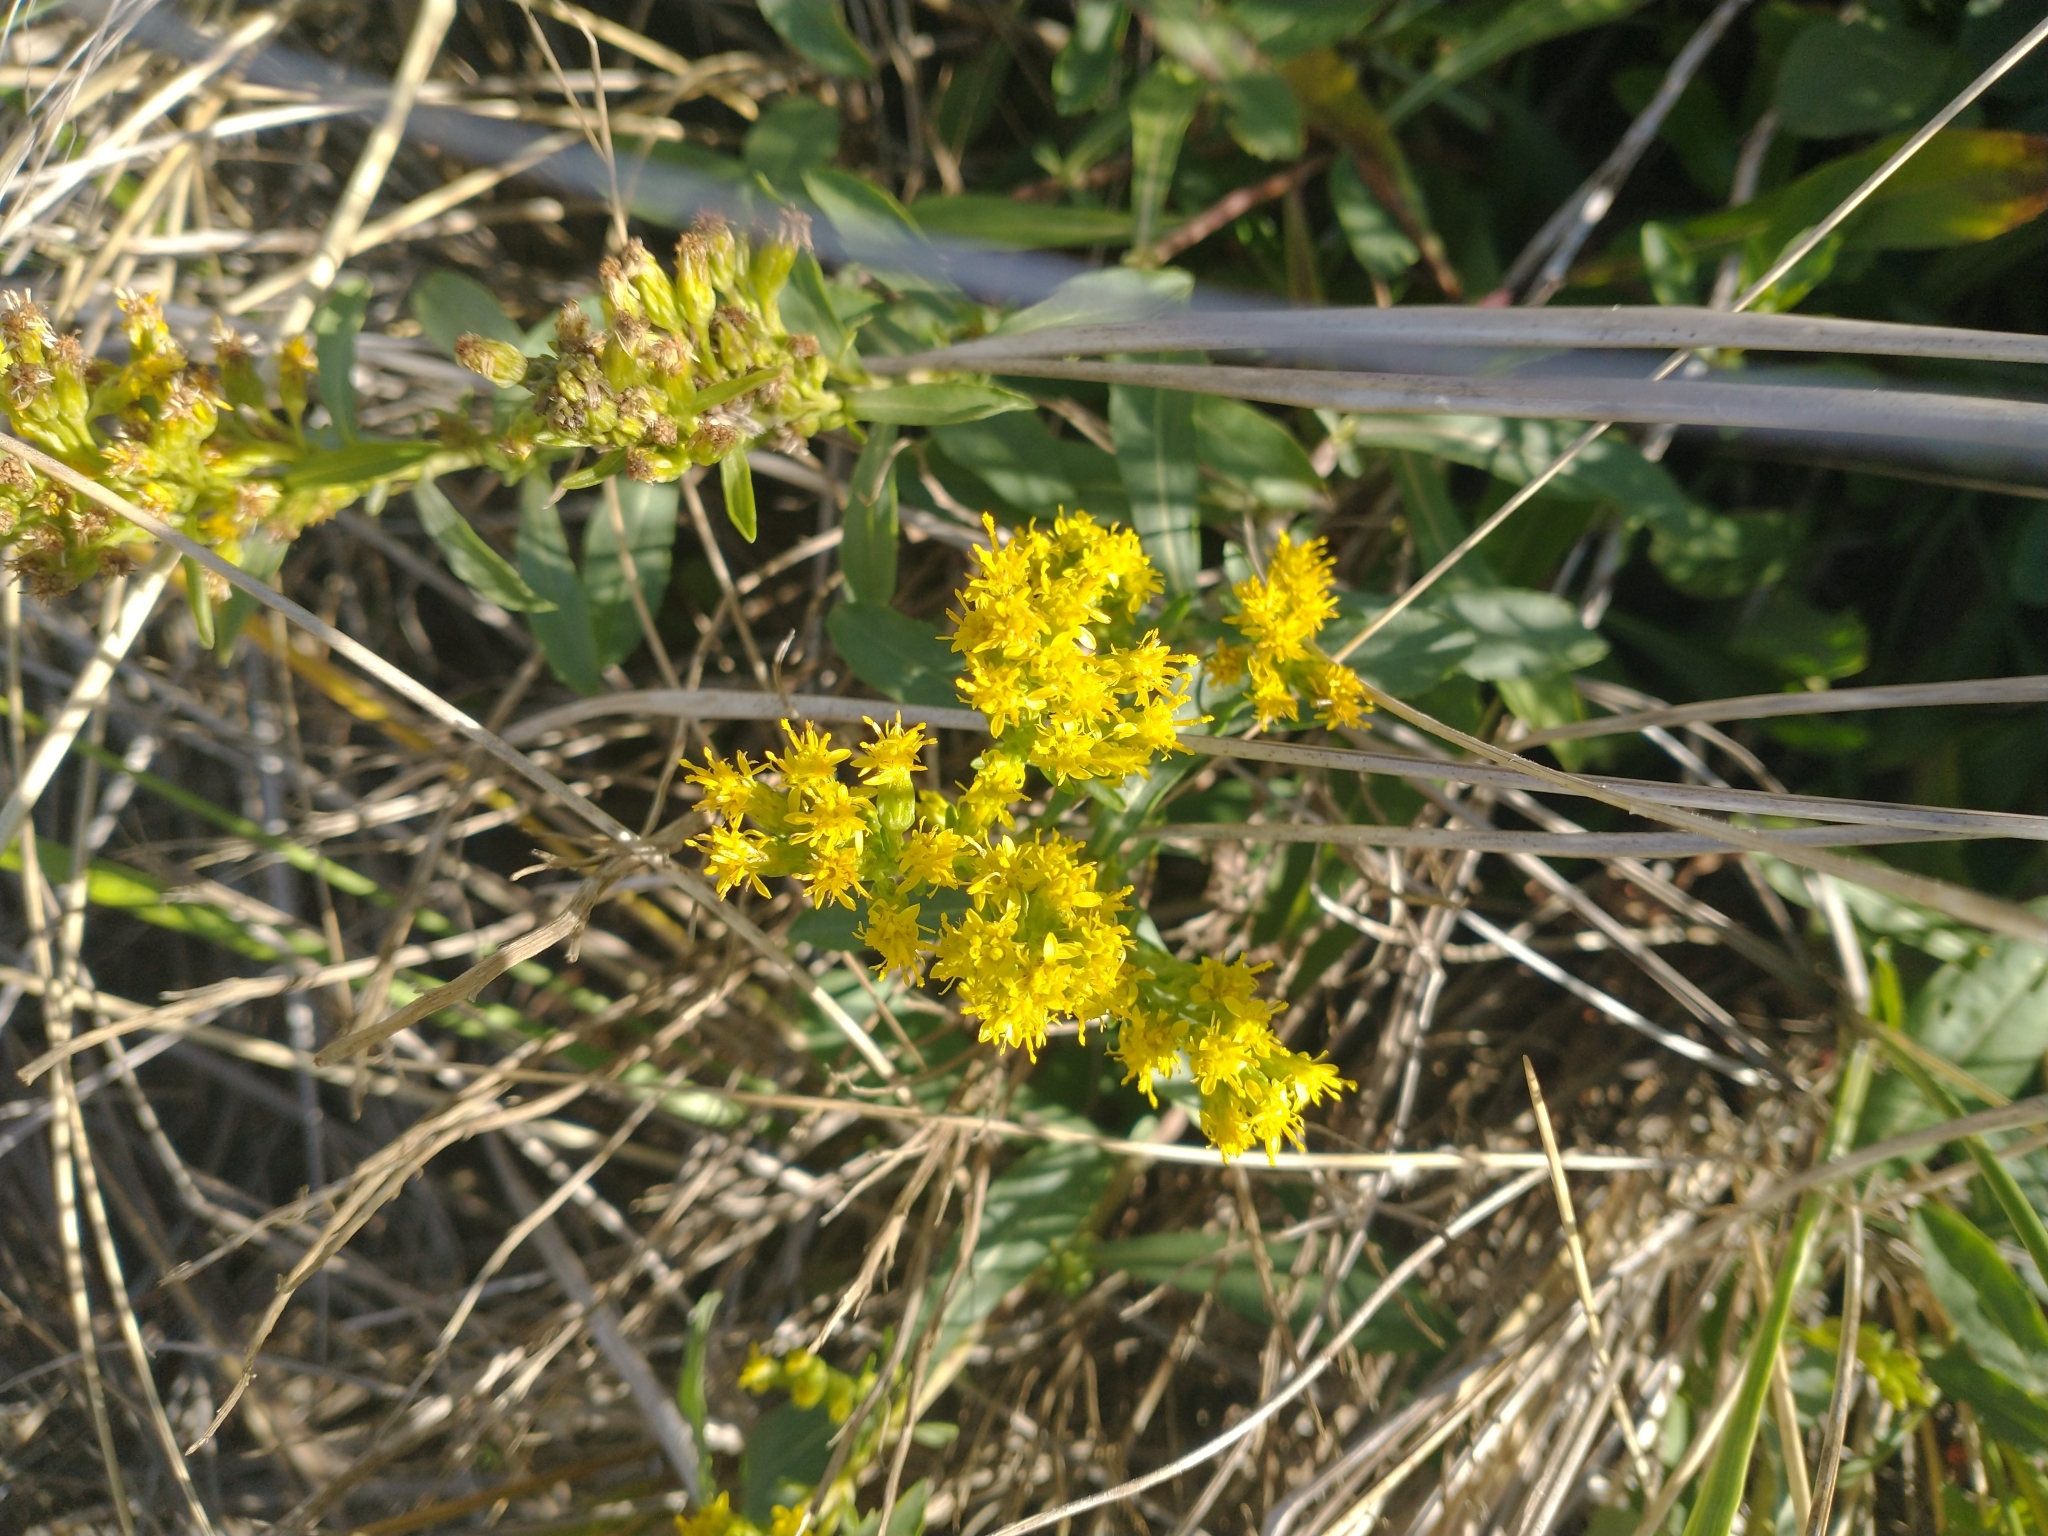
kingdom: Plantae
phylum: Tracheophyta
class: Magnoliopsida
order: Asterales
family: Asteraceae
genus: Solidago
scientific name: Solidago spathulata
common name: Coast goldenrod
